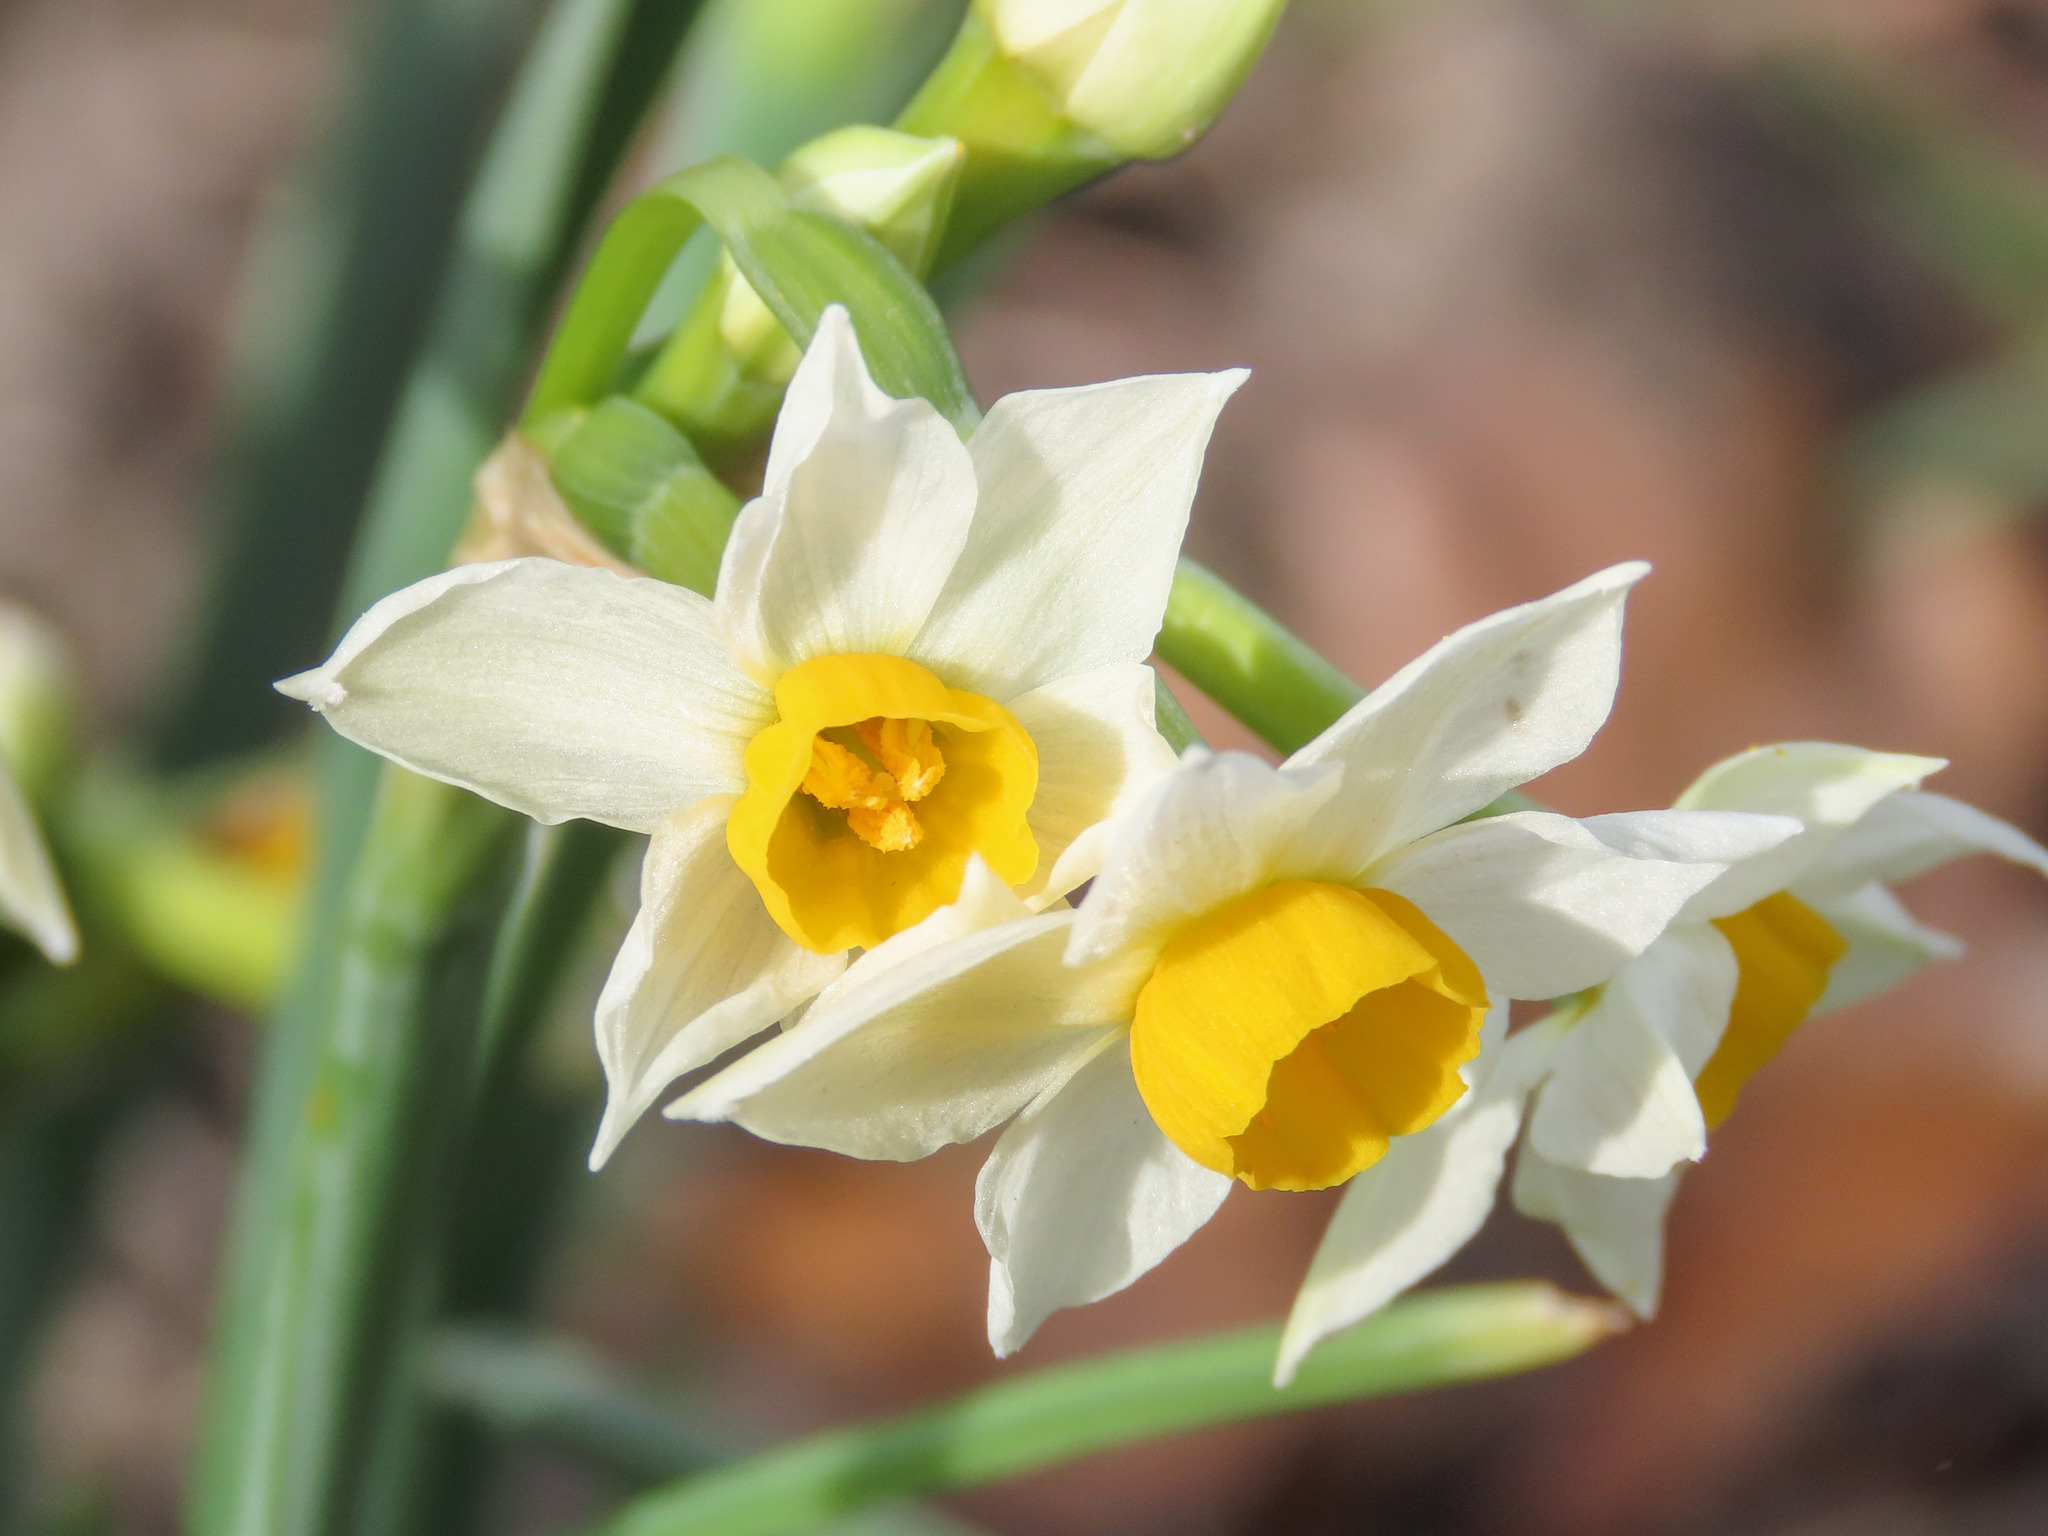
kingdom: Plantae
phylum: Tracheophyta
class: Liliopsida
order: Asparagales
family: Amaryllidaceae
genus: Narcissus
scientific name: Narcissus tazetta
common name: Bunch-flowered daffodil
